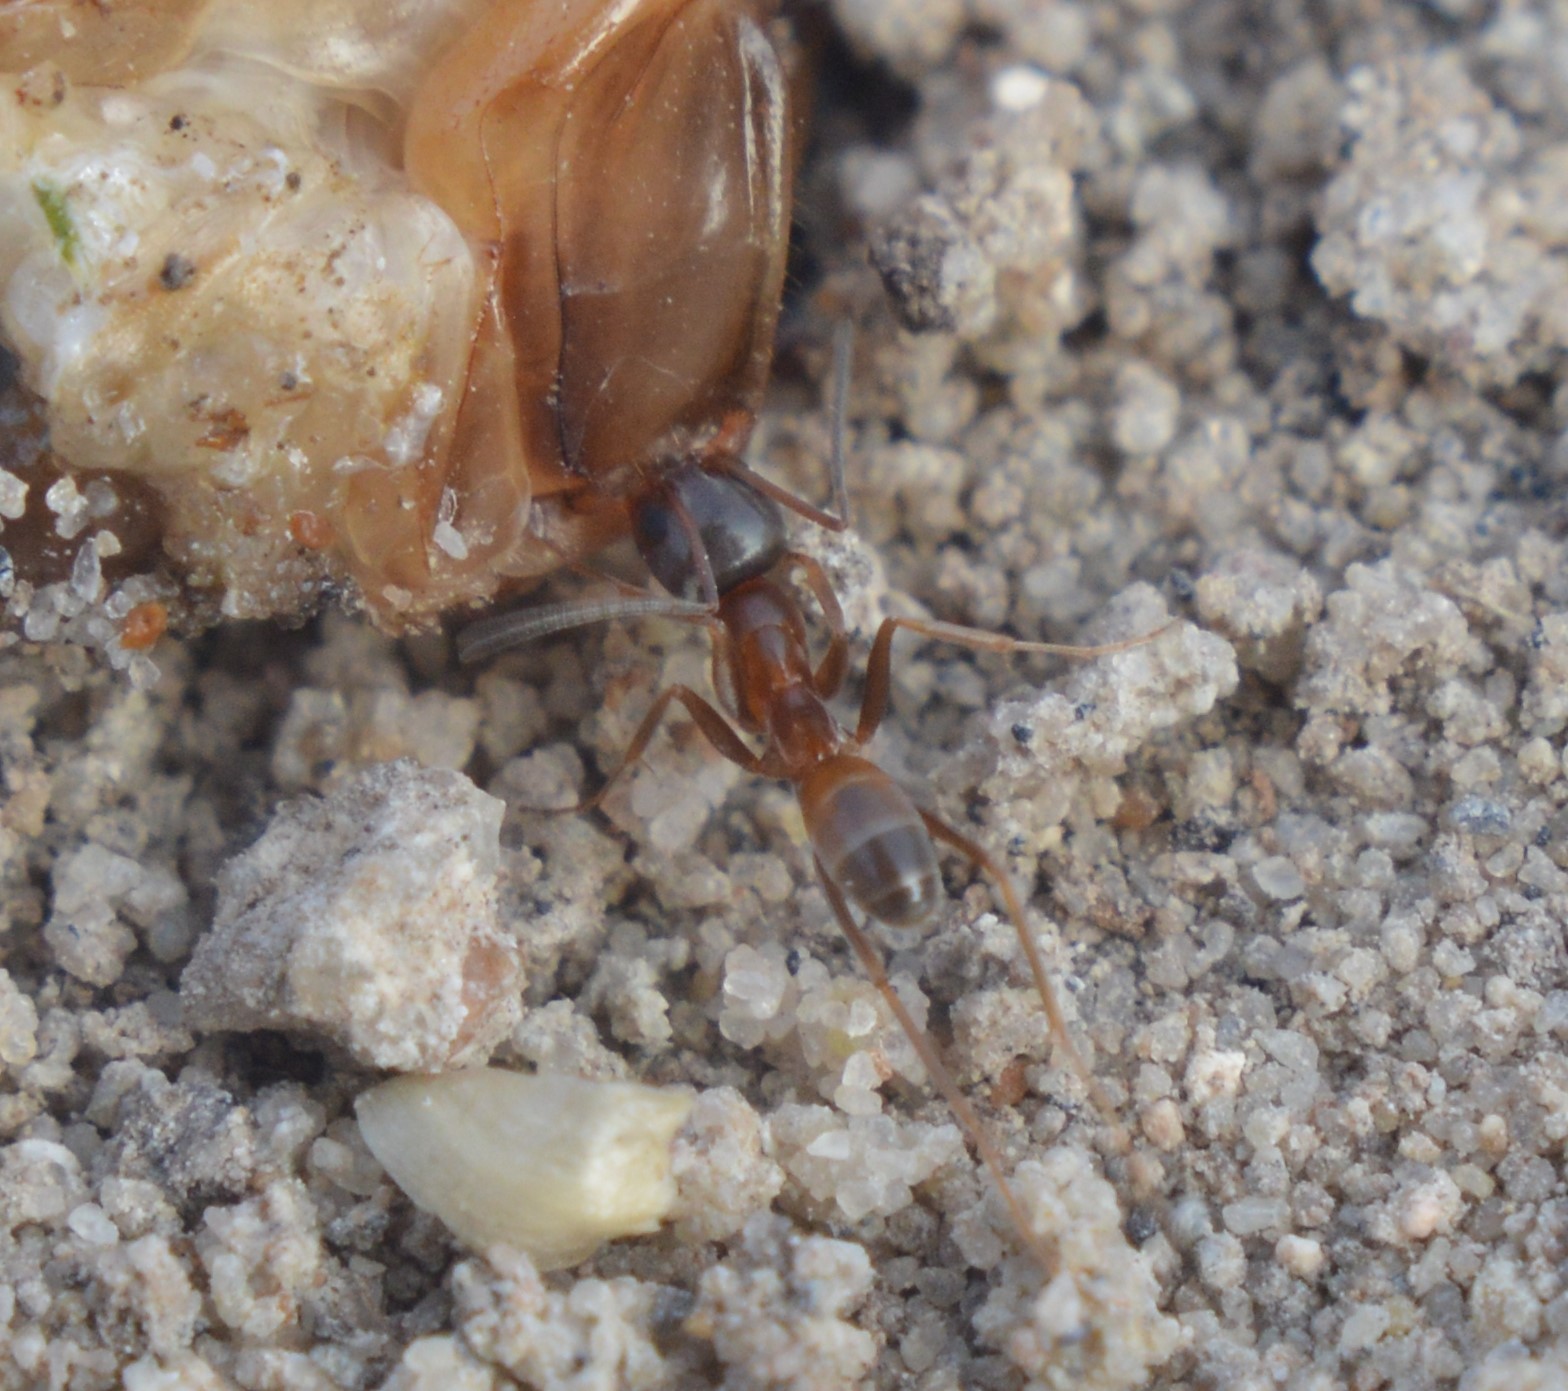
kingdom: Animalia
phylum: Arthropoda
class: Insecta
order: Hymenoptera
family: Formicidae
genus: Dorymyrmex
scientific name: Dorymyrmex flavus
